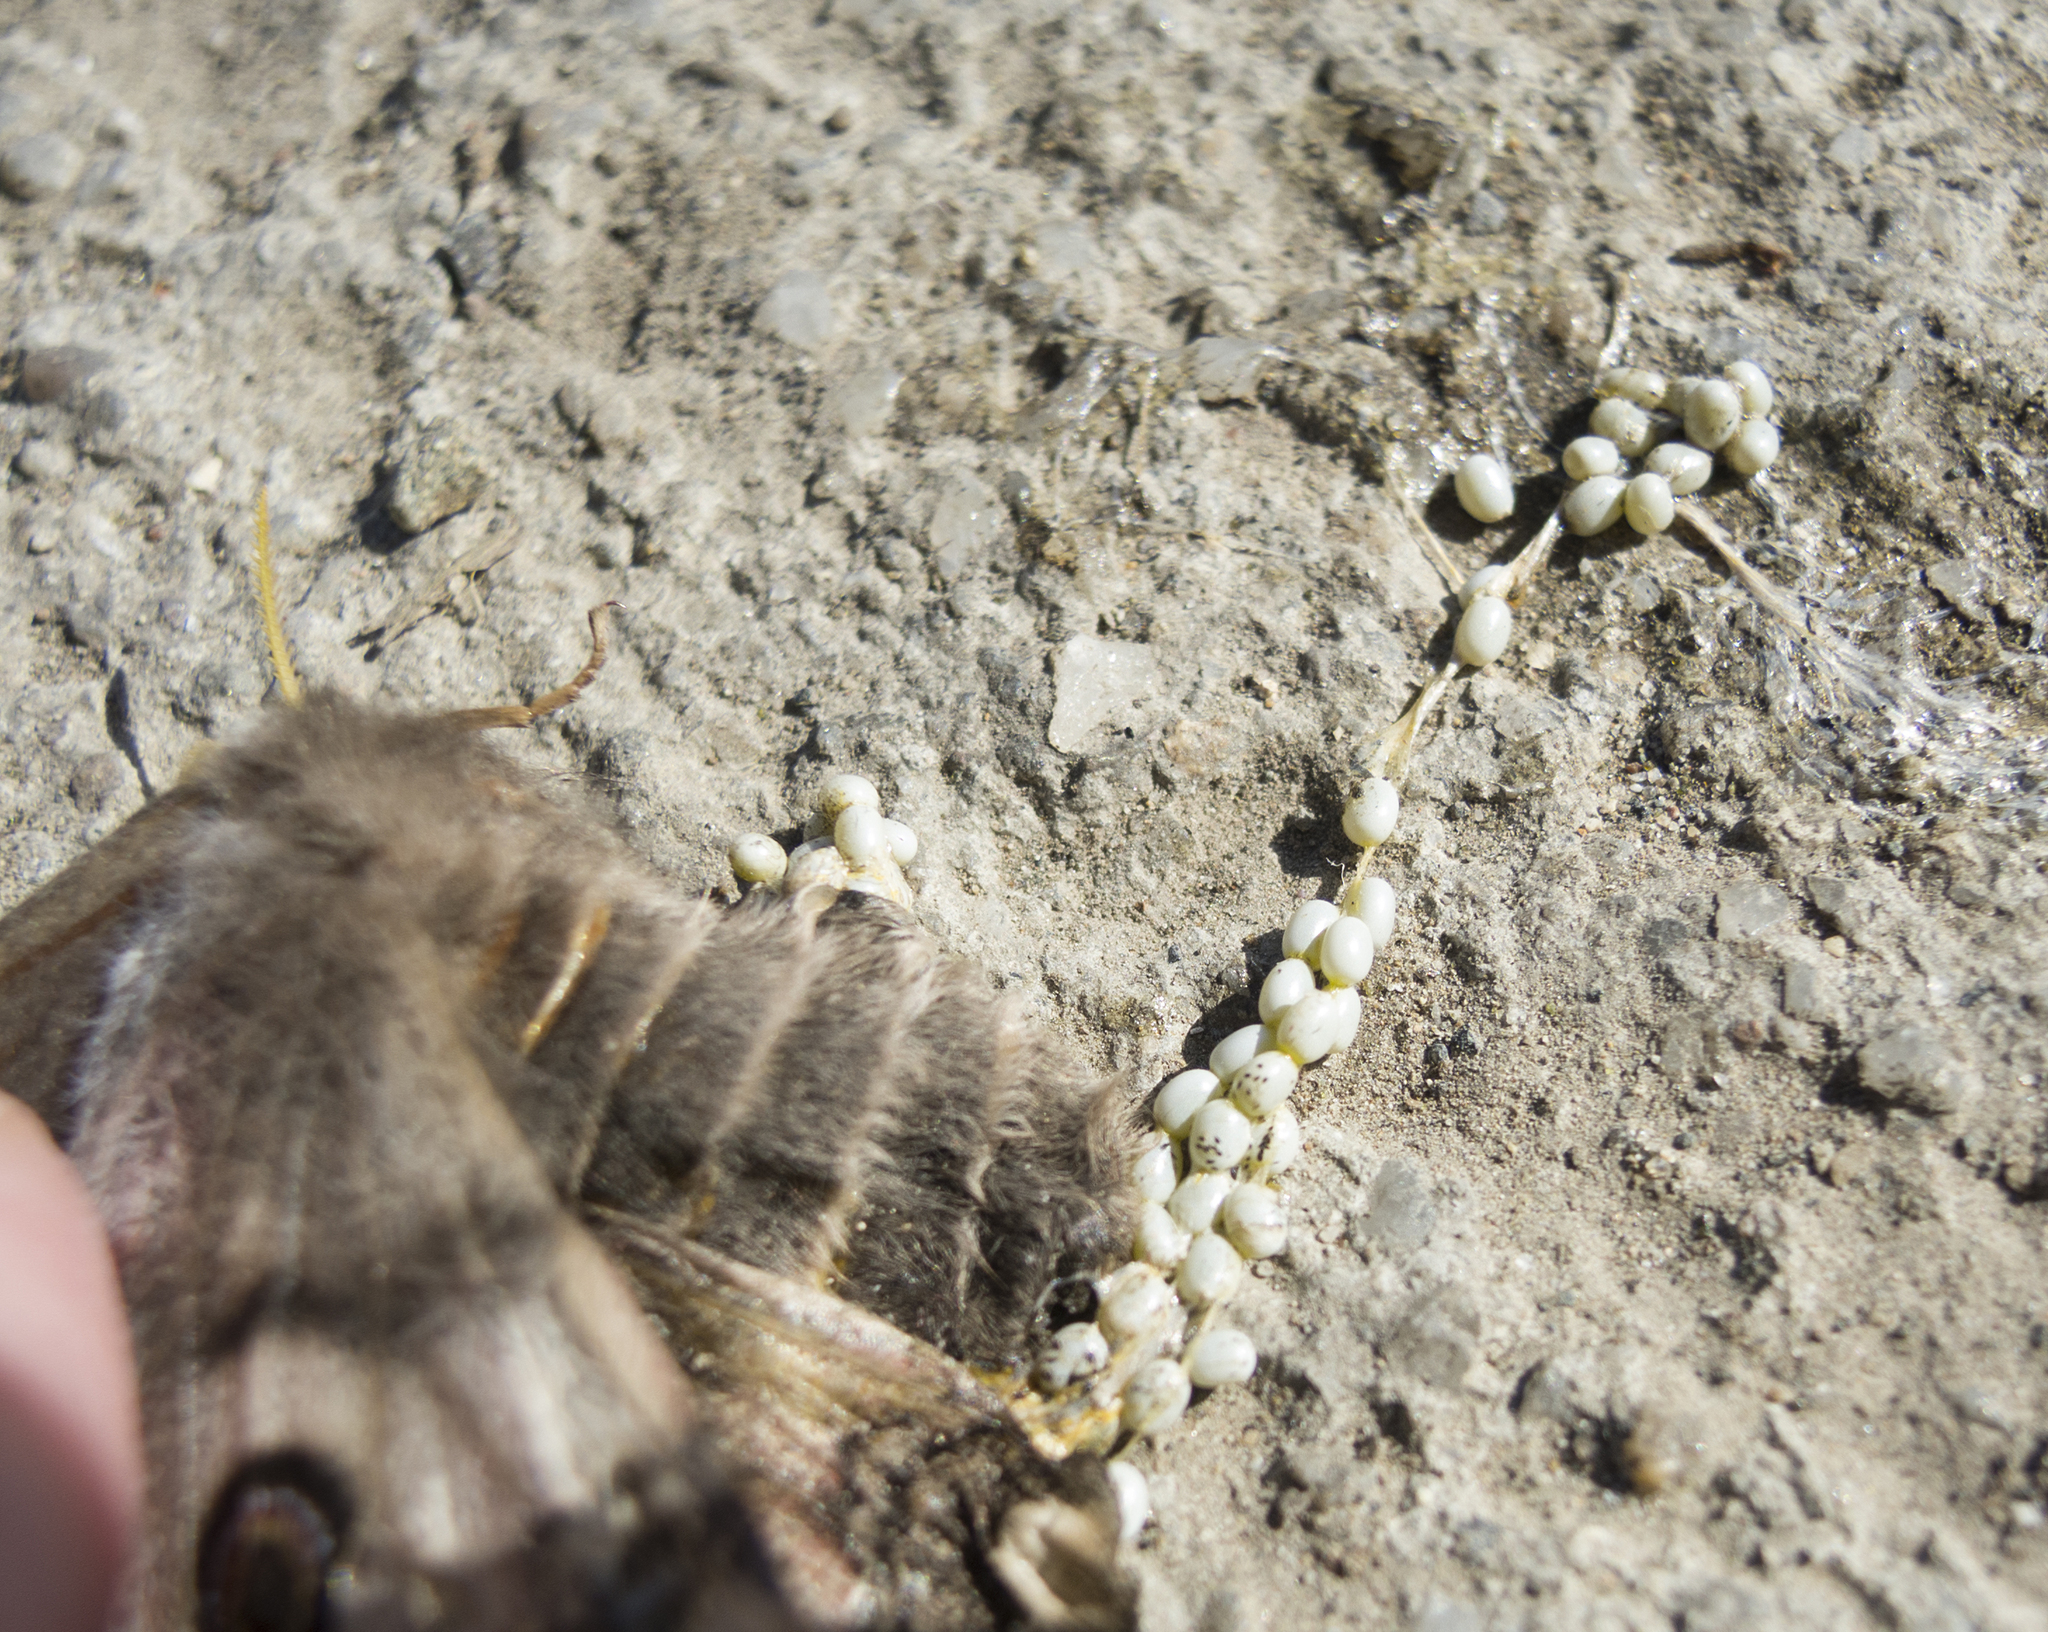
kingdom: Animalia
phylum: Arthropoda
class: Insecta
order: Lepidoptera
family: Saturniidae
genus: Saturnia
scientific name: Saturnia pavoniella
